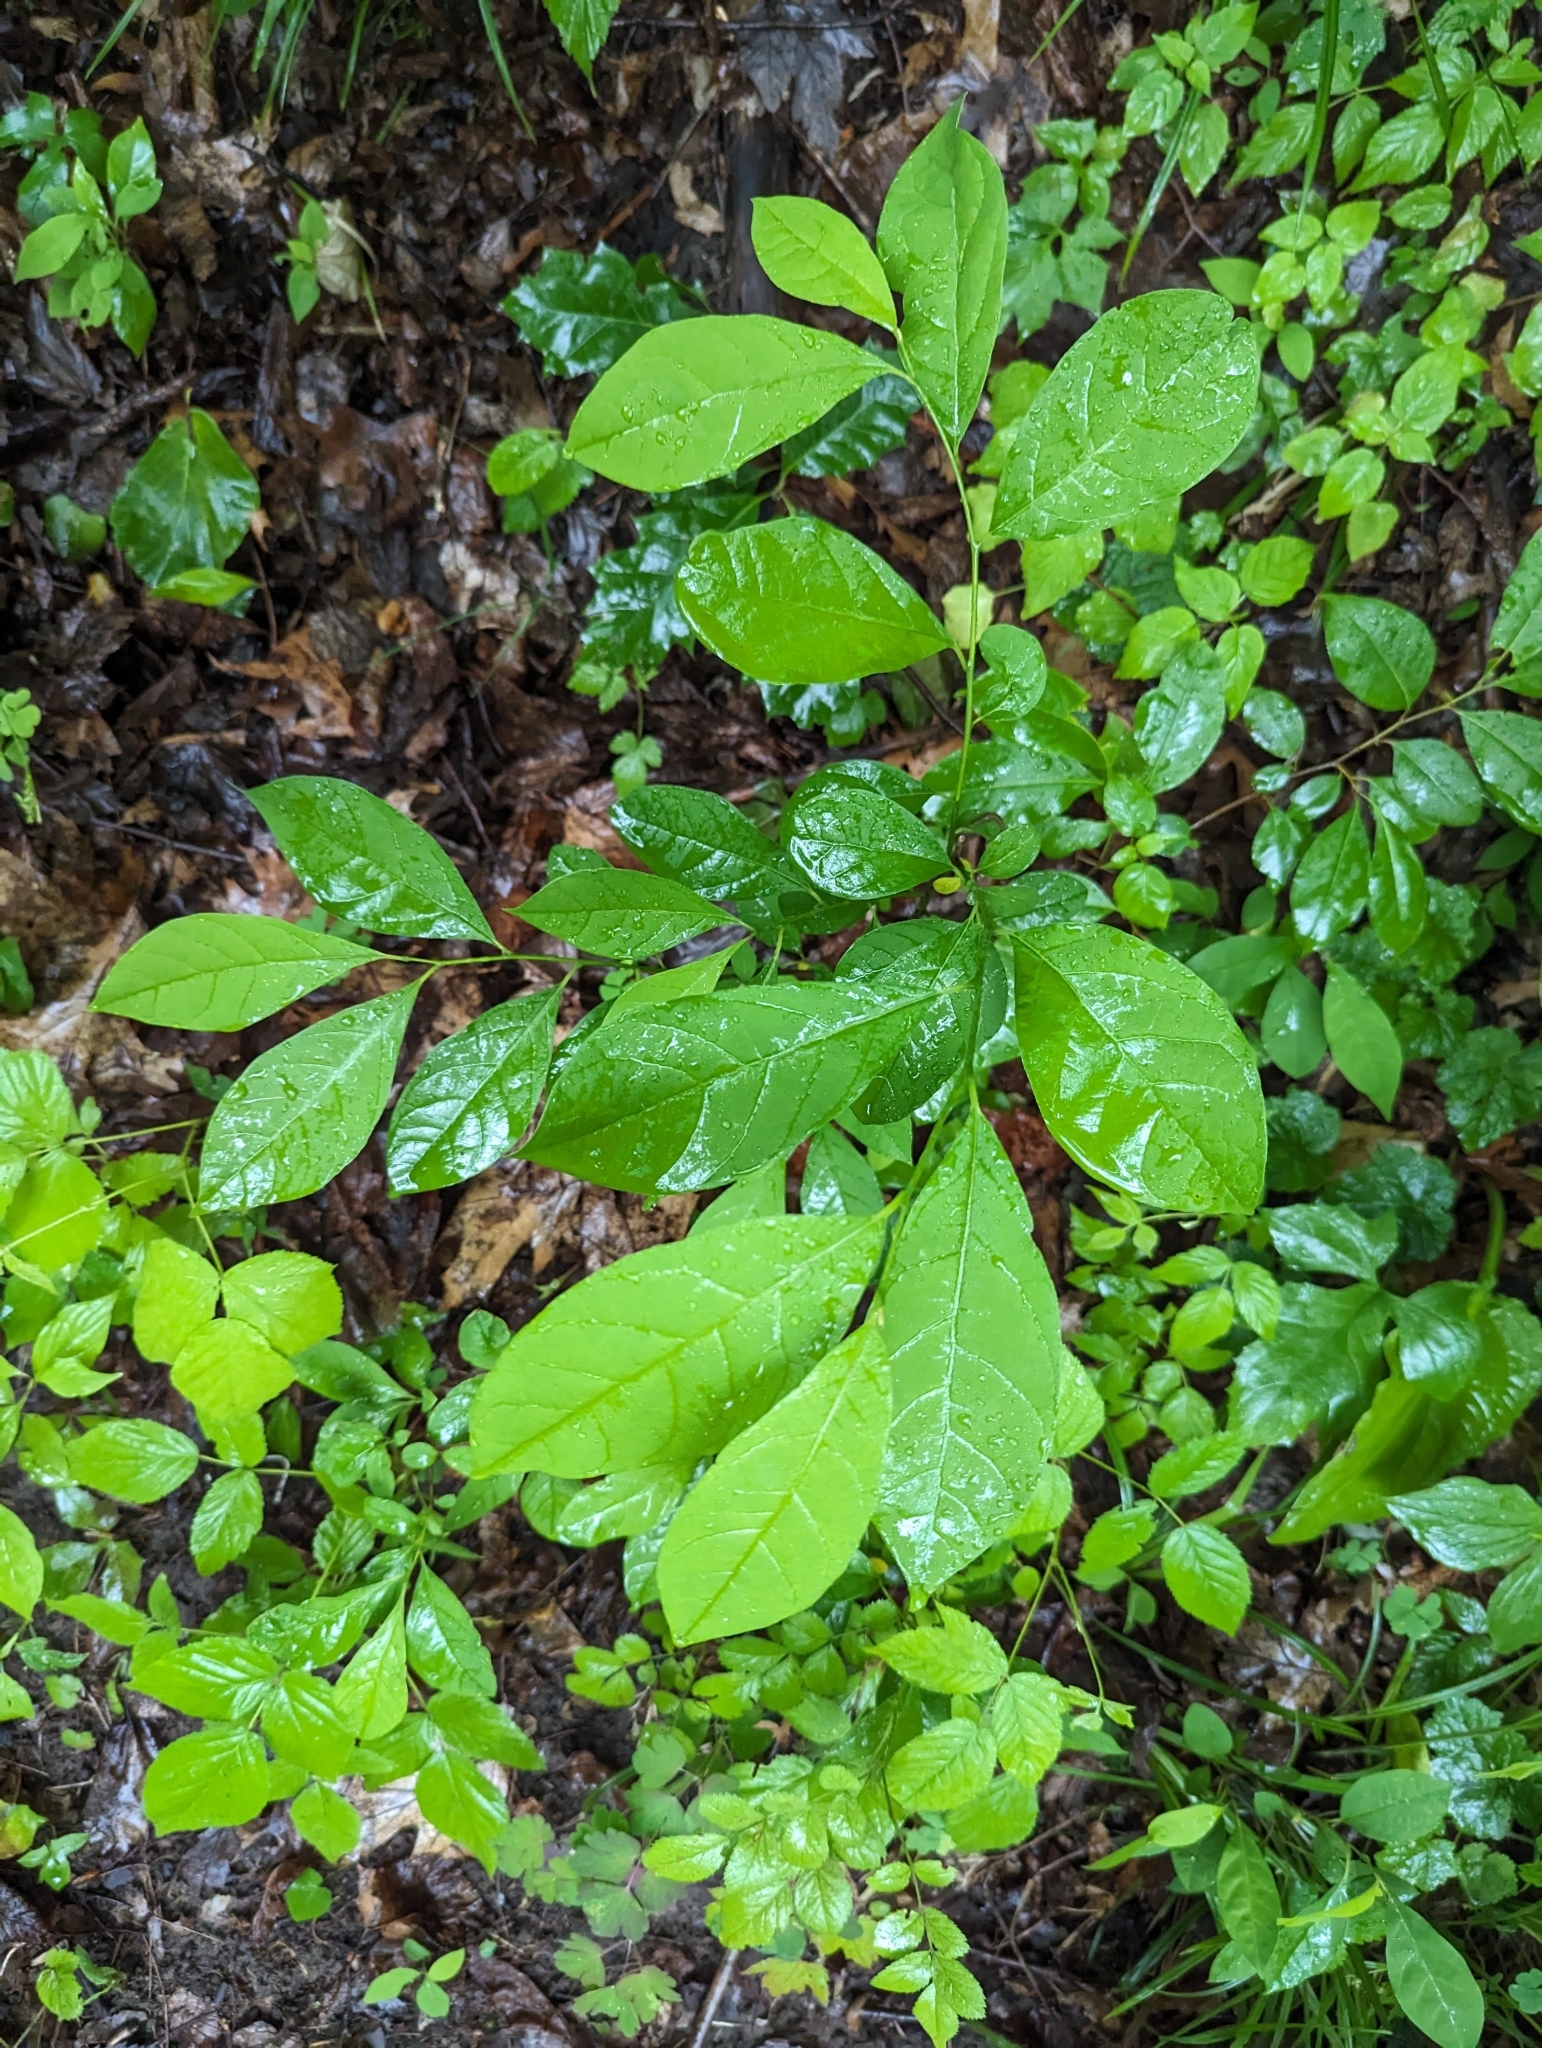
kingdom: Plantae
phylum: Tracheophyta
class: Magnoliopsida
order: Laurales
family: Lauraceae
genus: Lindera
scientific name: Lindera benzoin
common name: Spicebush
